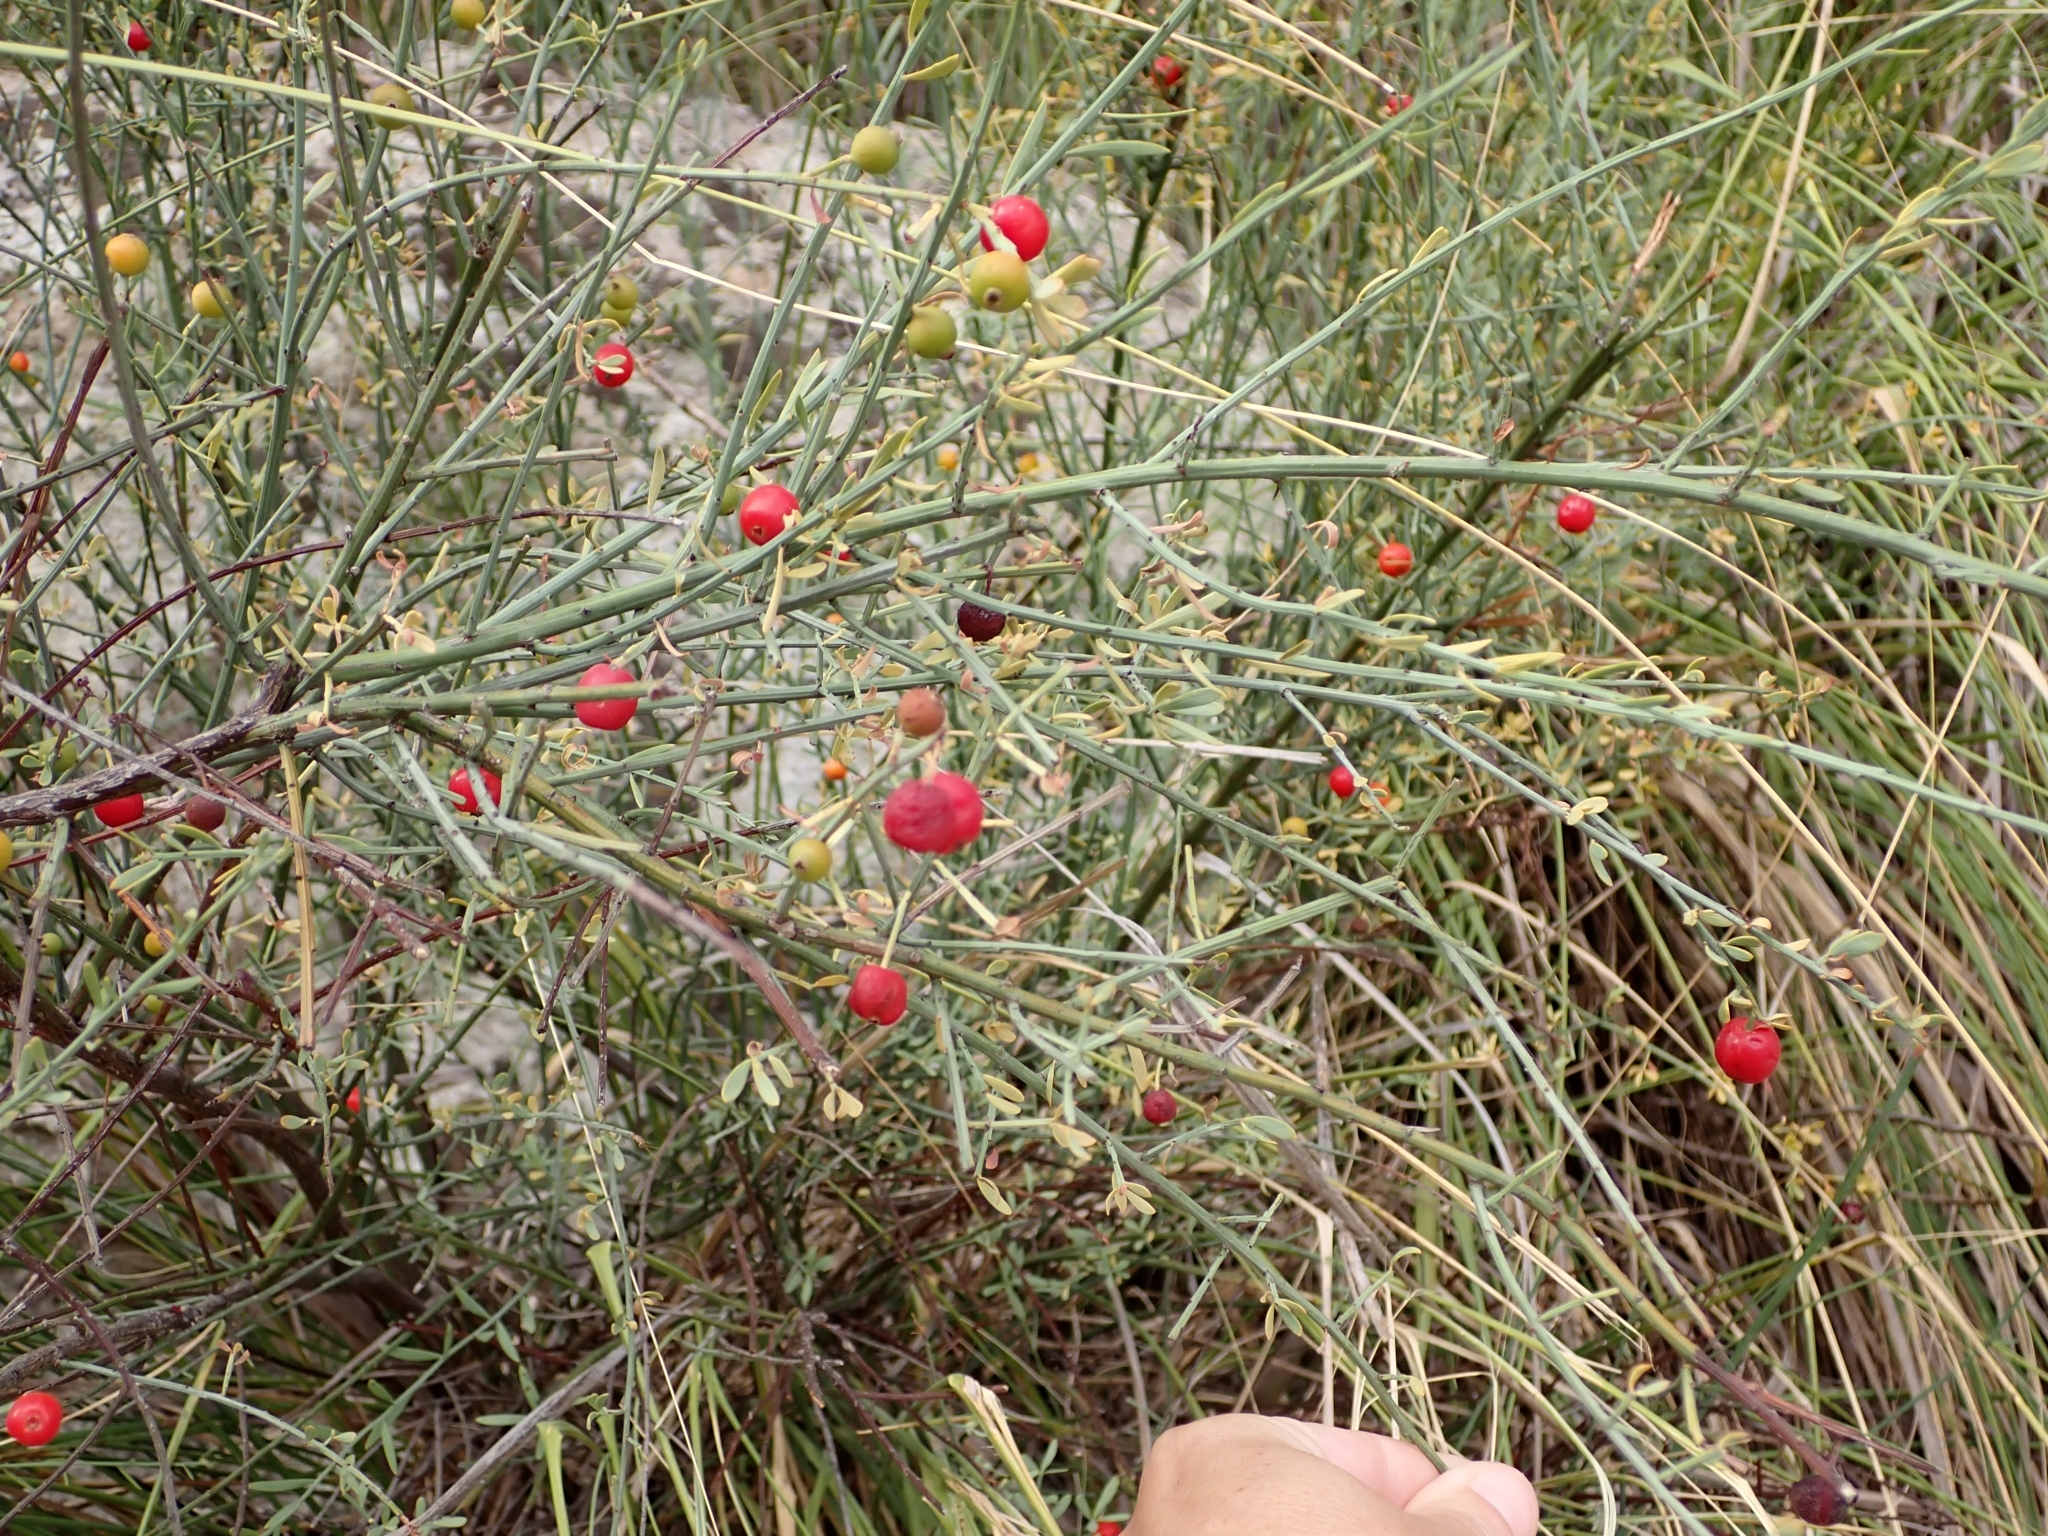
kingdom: Plantae
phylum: Tracheophyta
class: Magnoliopsida
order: Santalales
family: Santalaceae
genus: Osyris
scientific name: Osyris alba
